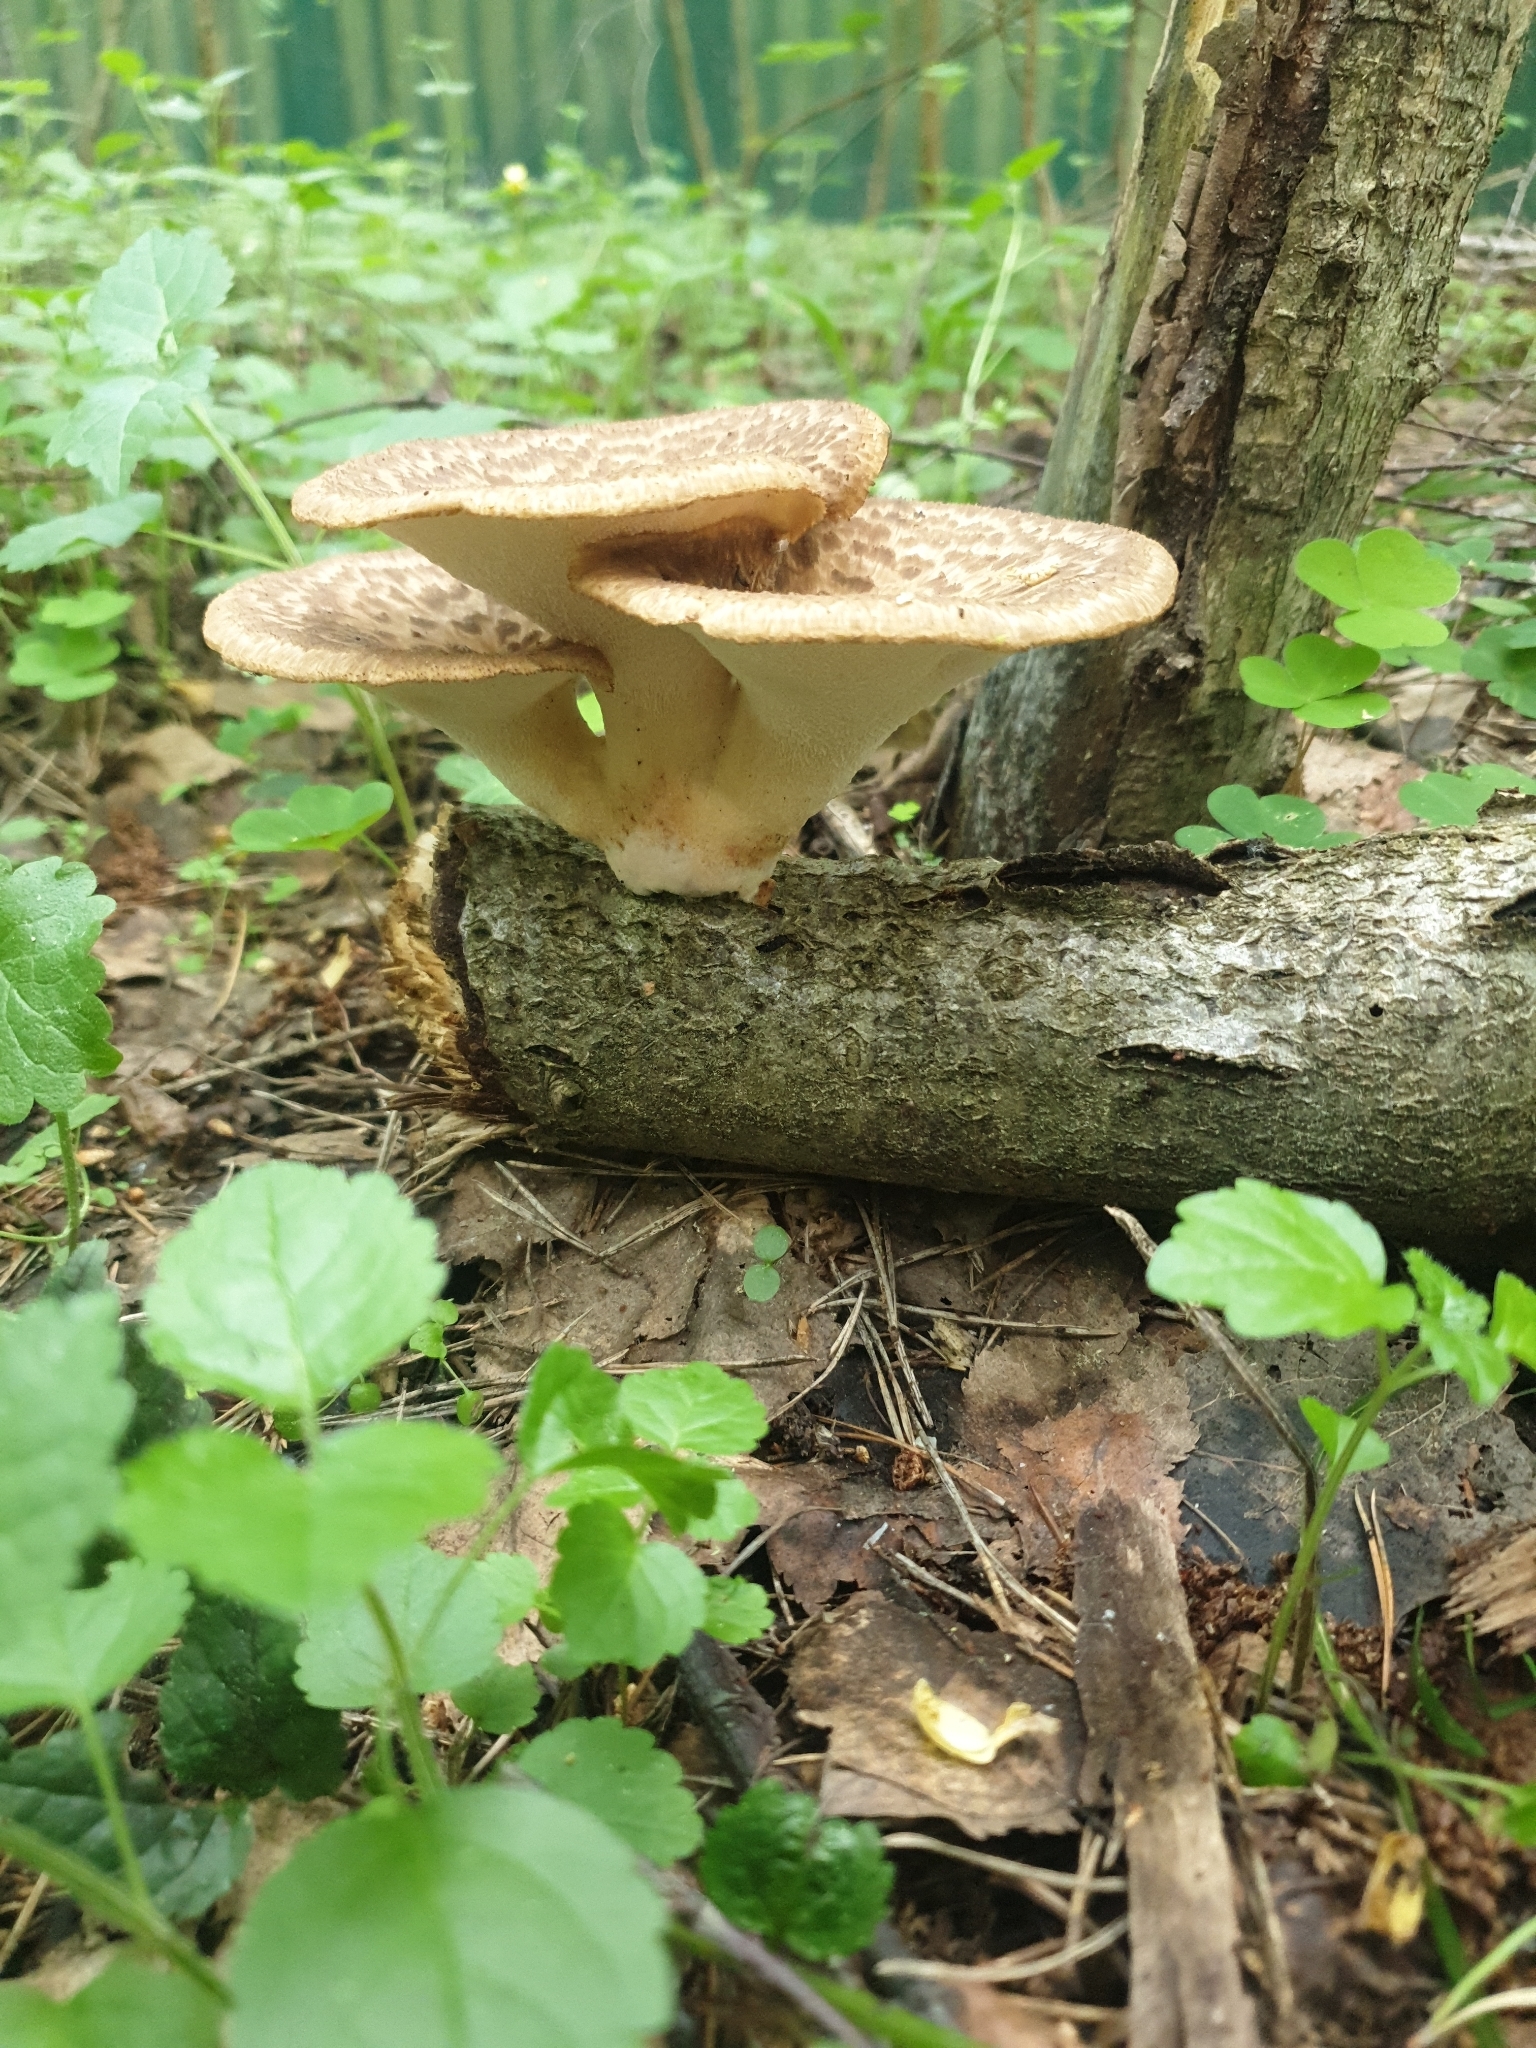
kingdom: Fungi
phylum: Basidiomycota
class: Agaricomycetes
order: Polyporales
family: Polyporaceae
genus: Cerioporus
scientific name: Cerioporus squamosus
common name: Dryad's saddle
